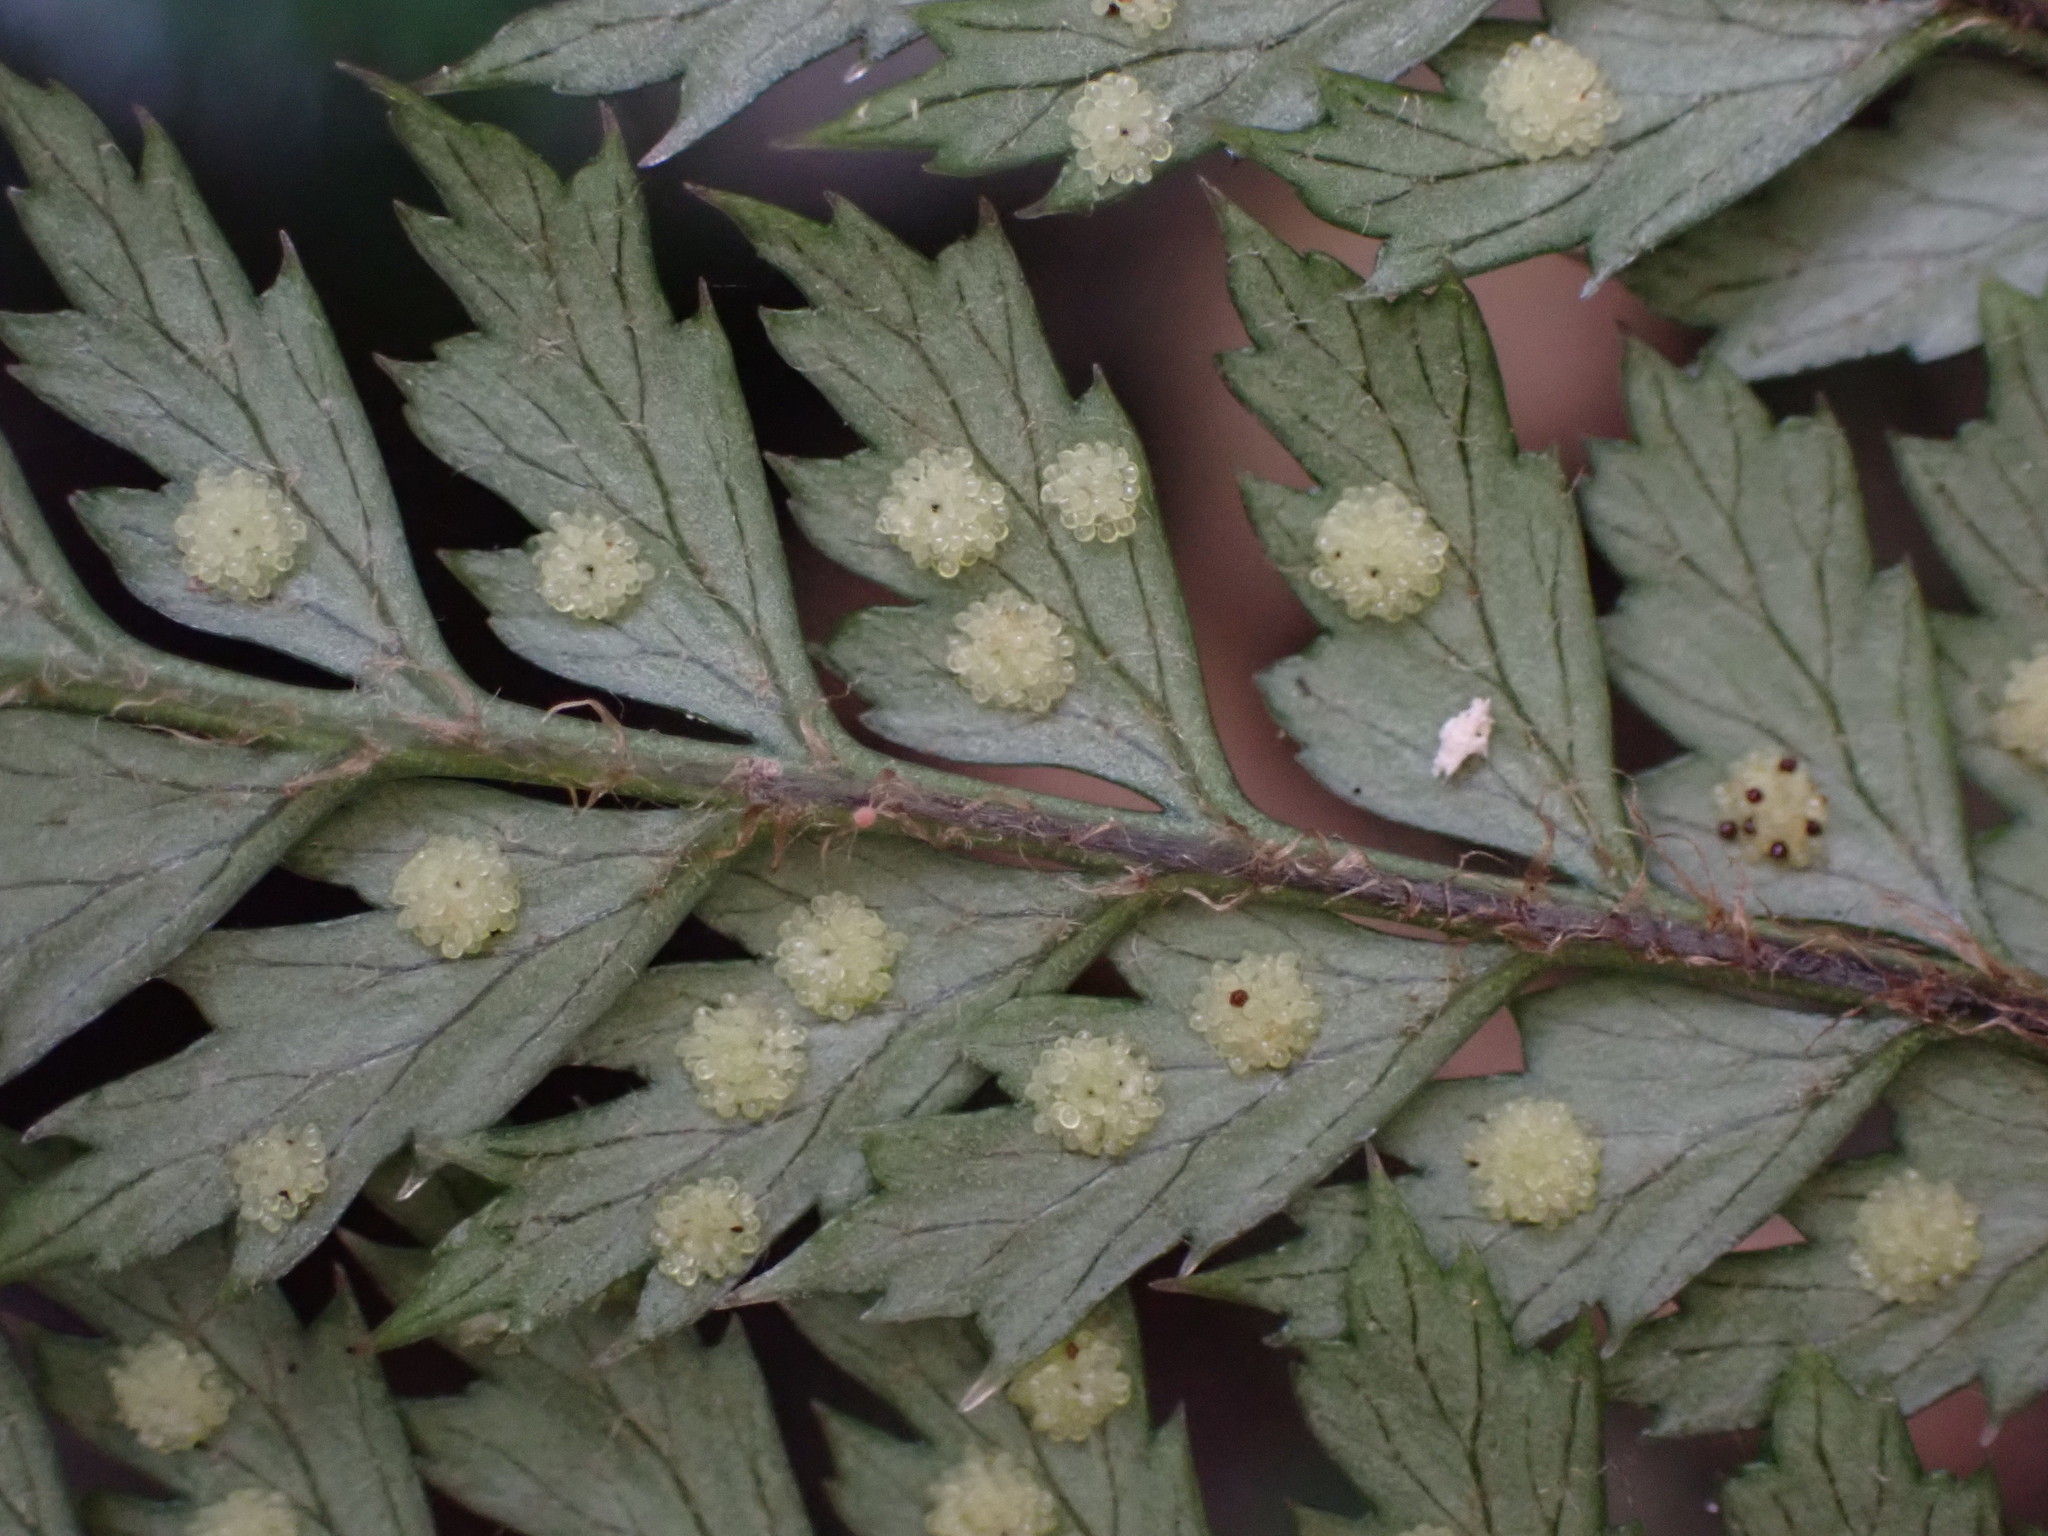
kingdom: Plantae
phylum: Tracheophyta
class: Polypodiopsida
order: Polypodiales
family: Dryopteridaceae
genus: Polystichum
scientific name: Polystichum silvaticum
